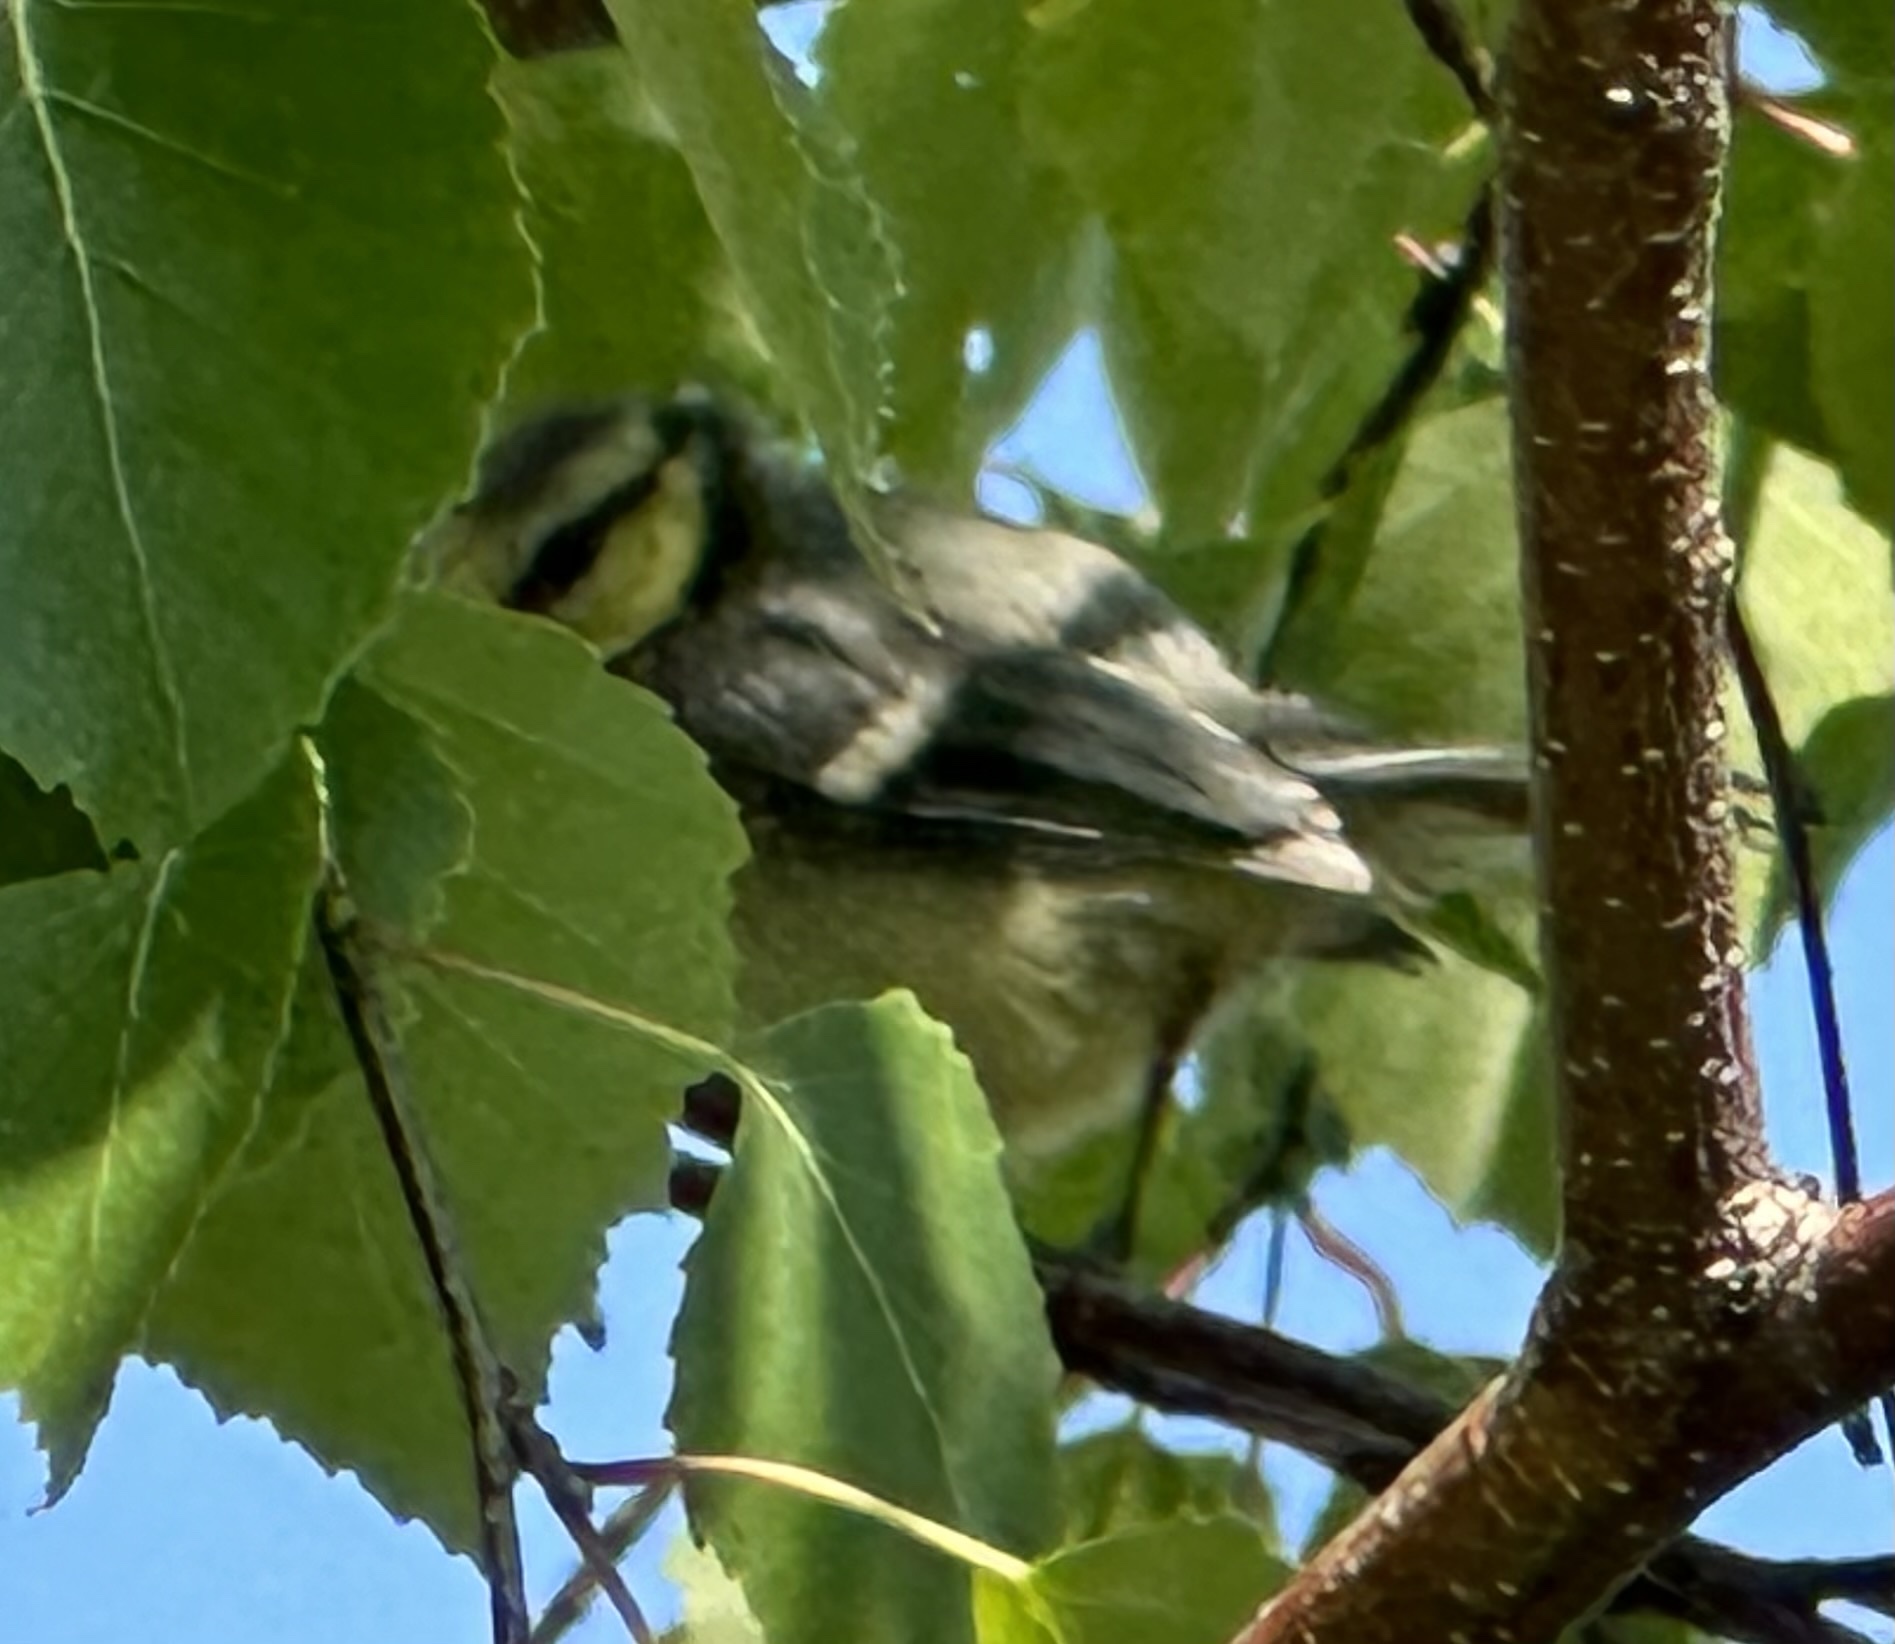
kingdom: Animalia
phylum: Chordata
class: Aves
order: Passeriformes
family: Paridae
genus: Cyanistes
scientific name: Cyanistes caeruleus
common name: Eurasian blue tit
